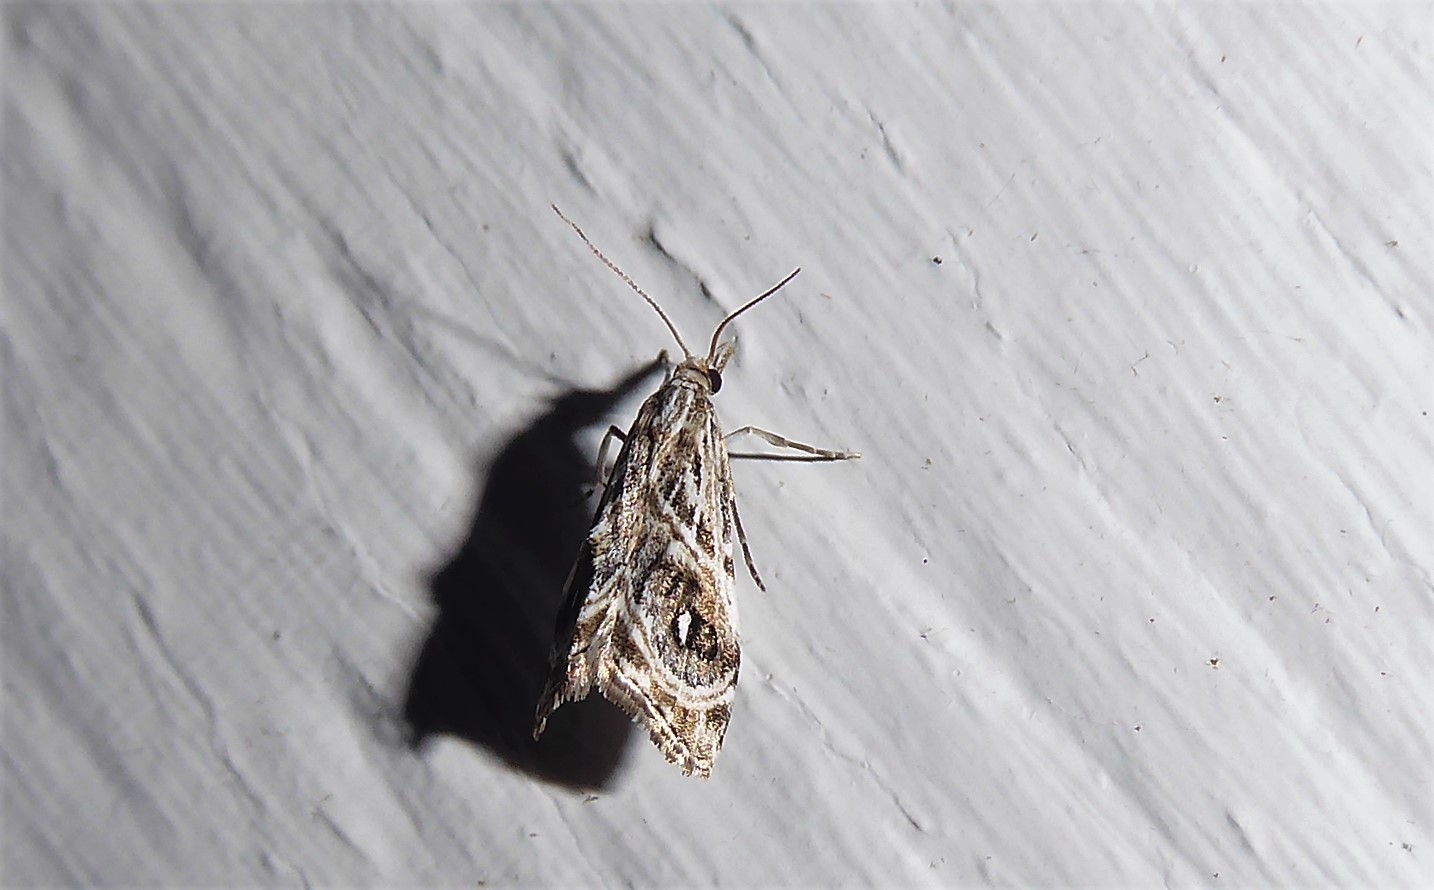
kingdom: Animalia
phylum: Arthropoda
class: Insecta
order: Lepidoptera
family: Crambidae
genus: Gadira
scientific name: Gadira acerella
